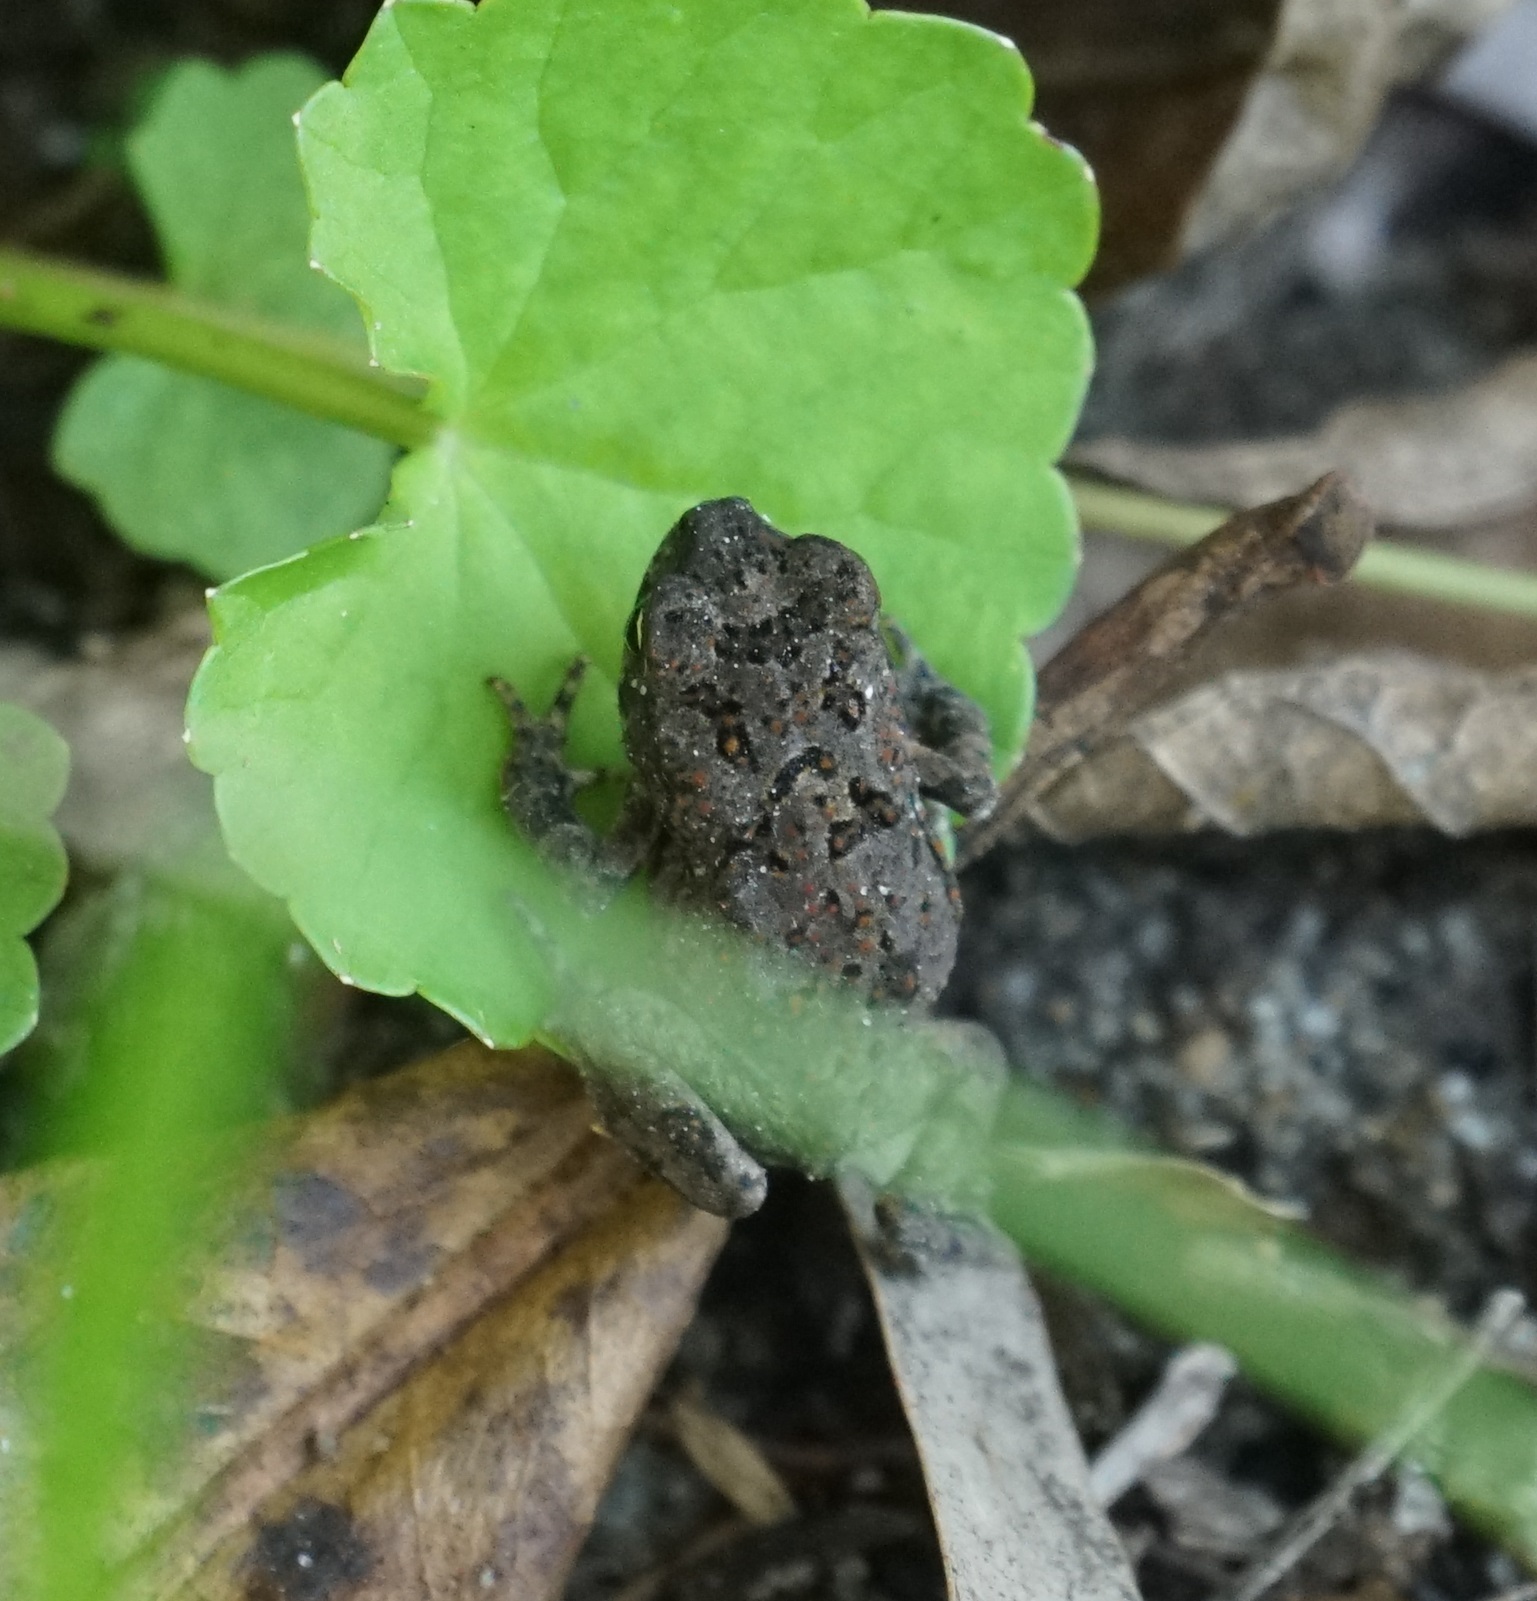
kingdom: Animalia
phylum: Chordata
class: Amphibia
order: Anura
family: Bufonidae
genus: Rhinella
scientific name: Rhinella marina
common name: Cane toad
